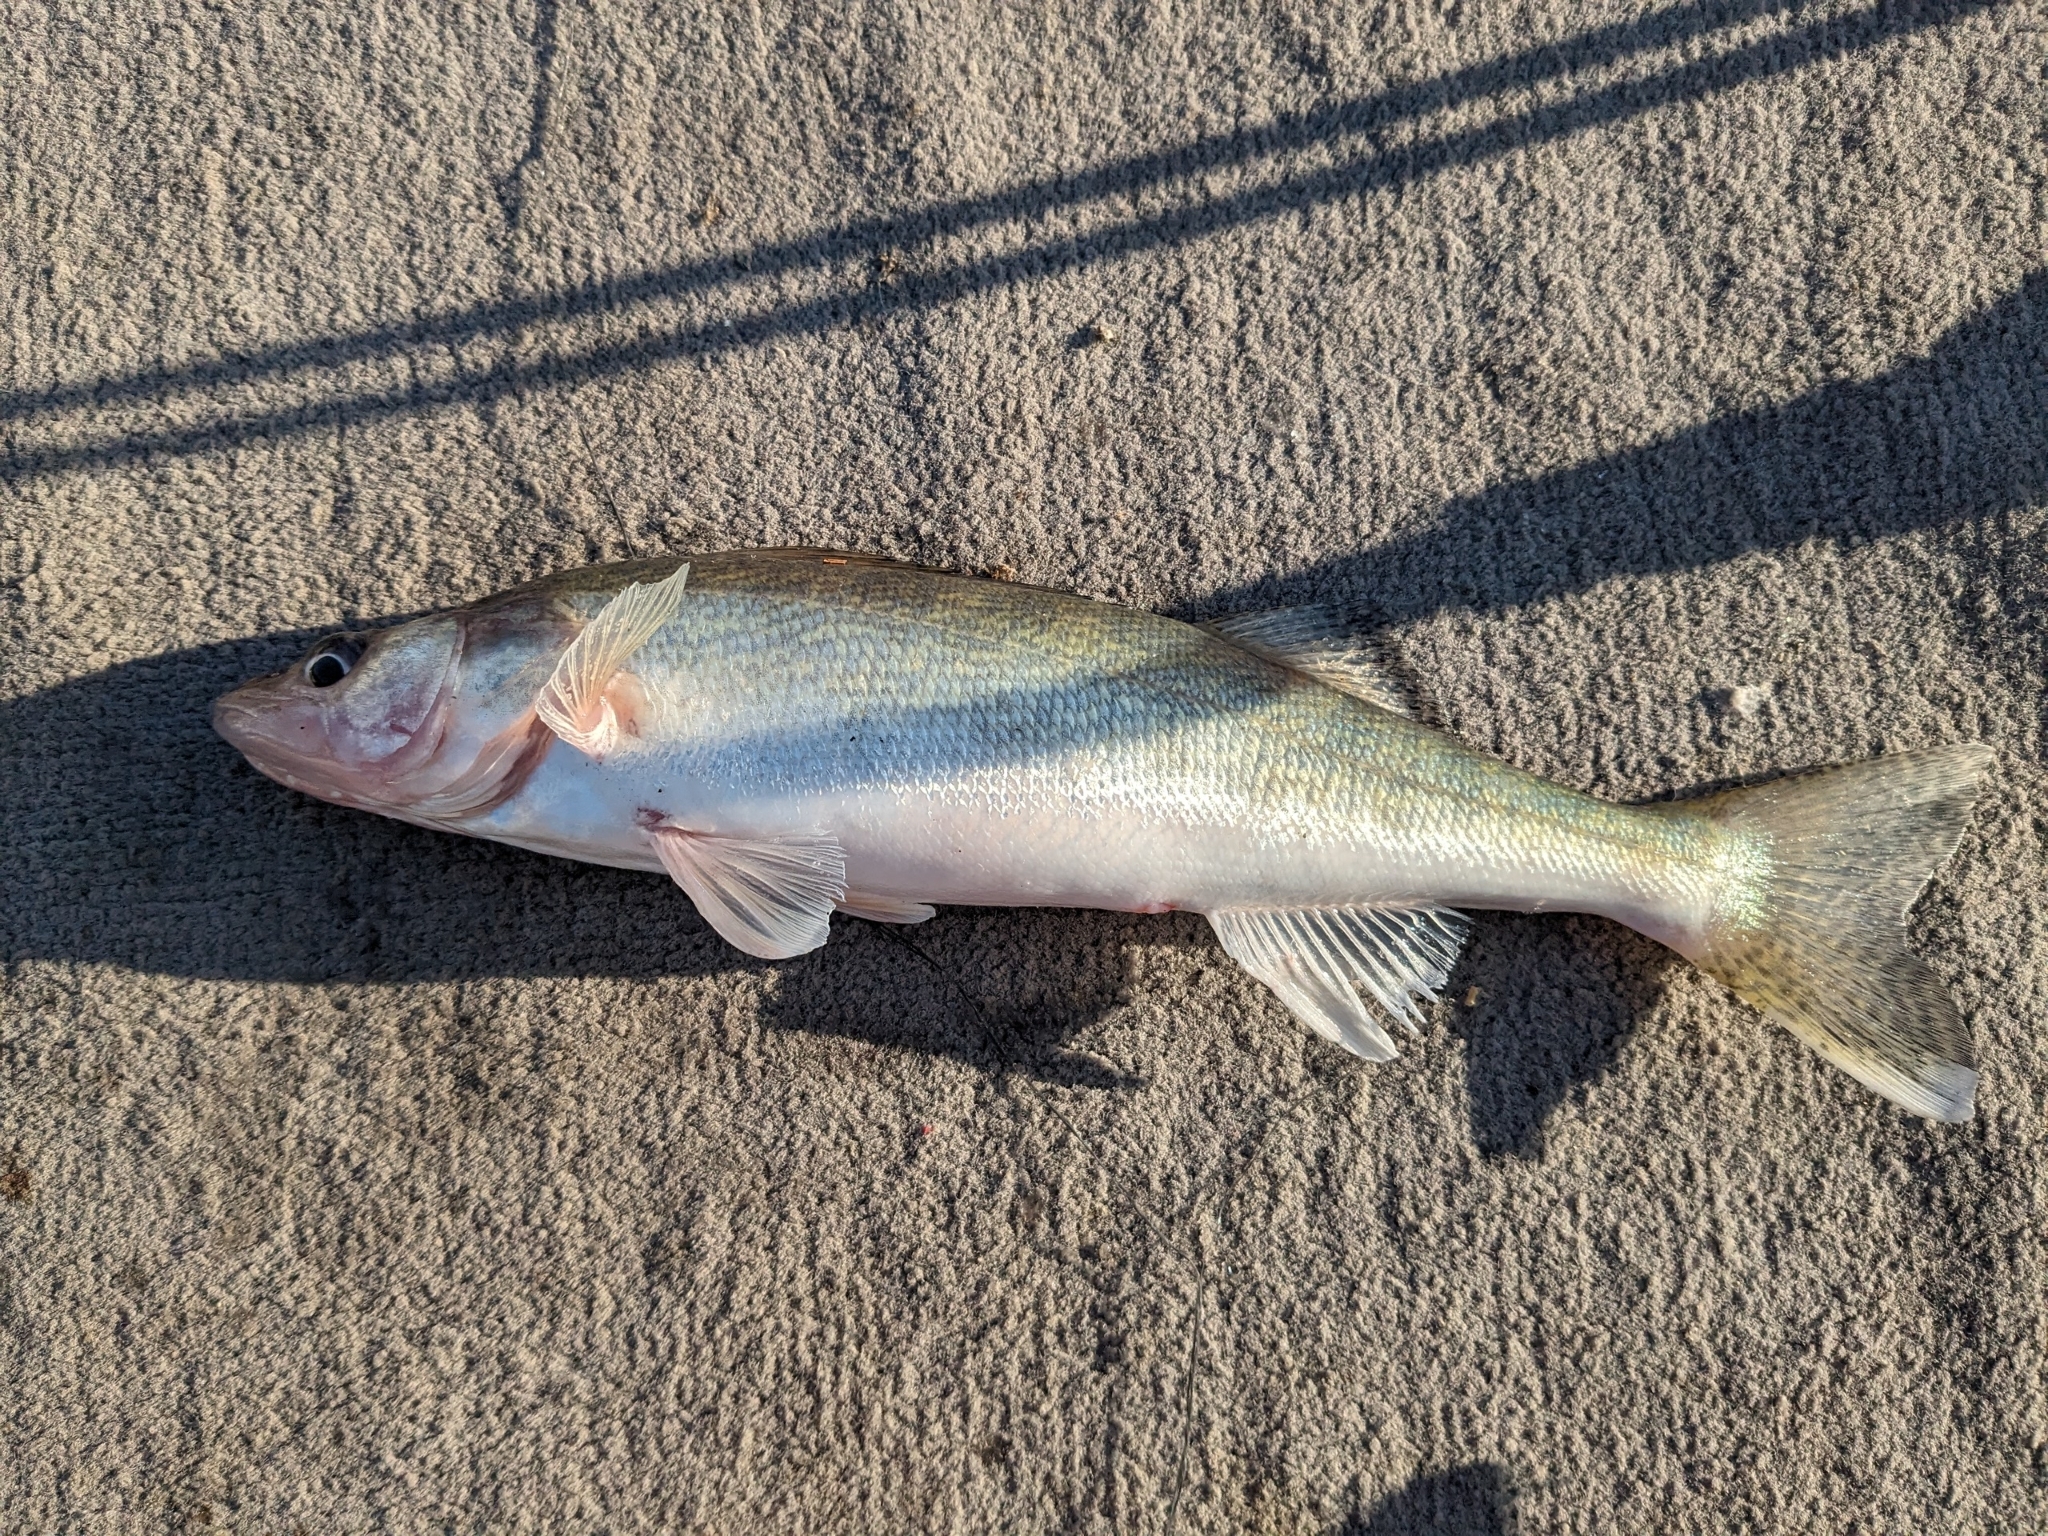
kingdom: Animalia
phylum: Chordata
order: Perciformes
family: Percidae
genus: Sander
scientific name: Sander vitreus
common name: Walleye
